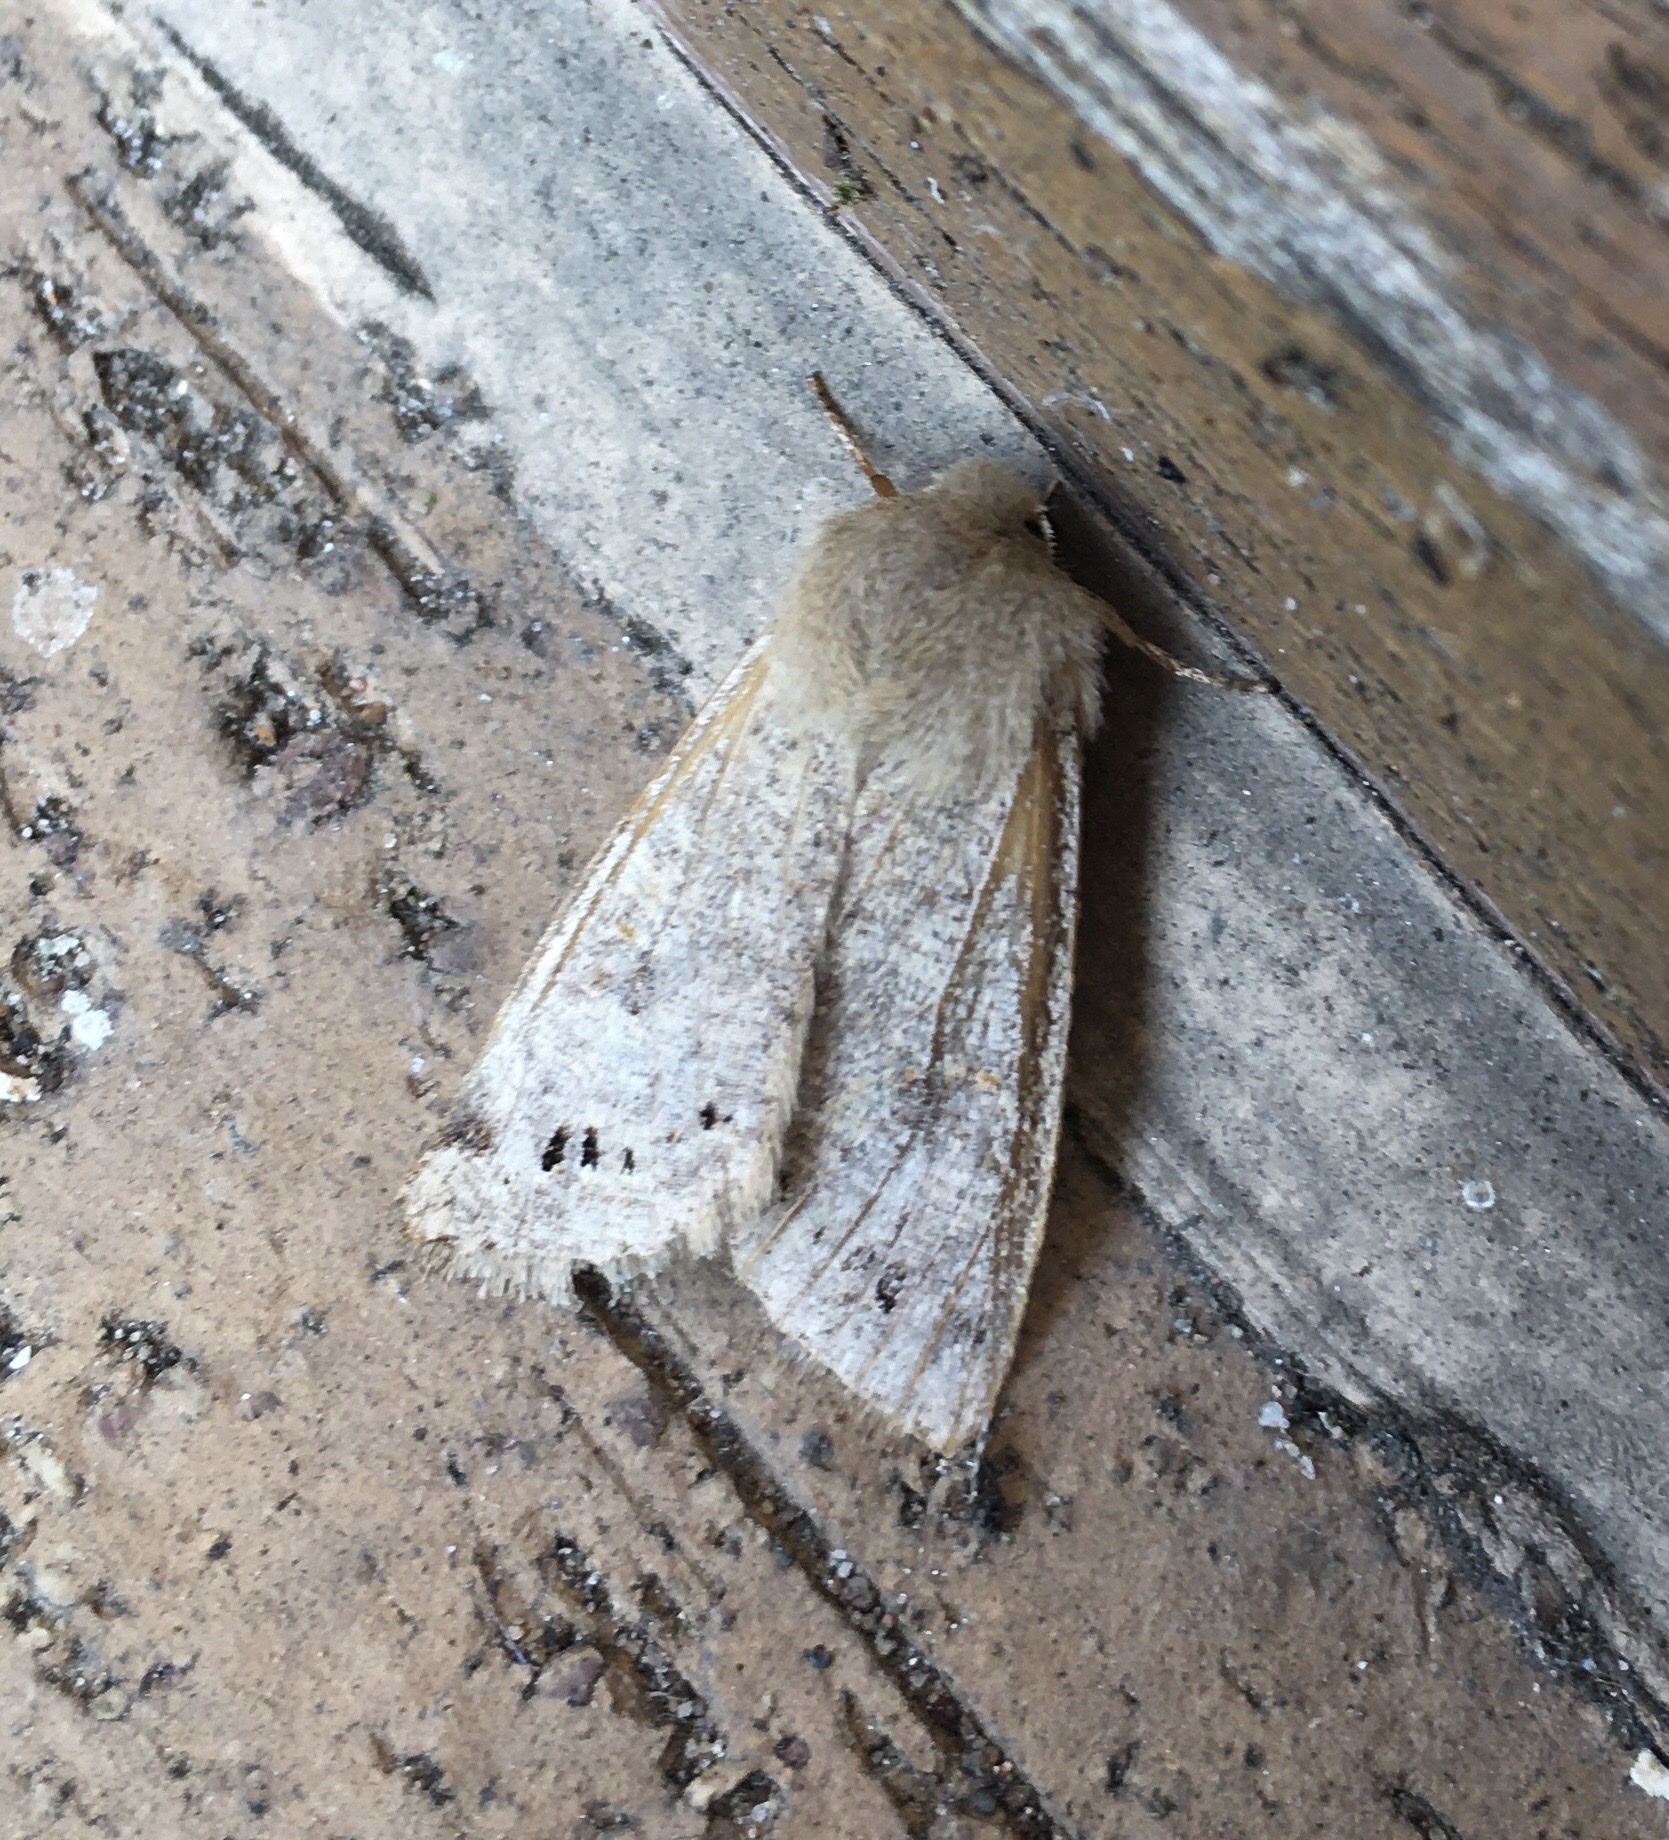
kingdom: Animalia
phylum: Arthropoda
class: Insecta
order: Lepidoptera
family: Noctuidae
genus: Anorthoa
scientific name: Anorthoa munda
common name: Twin-spotted quaker
